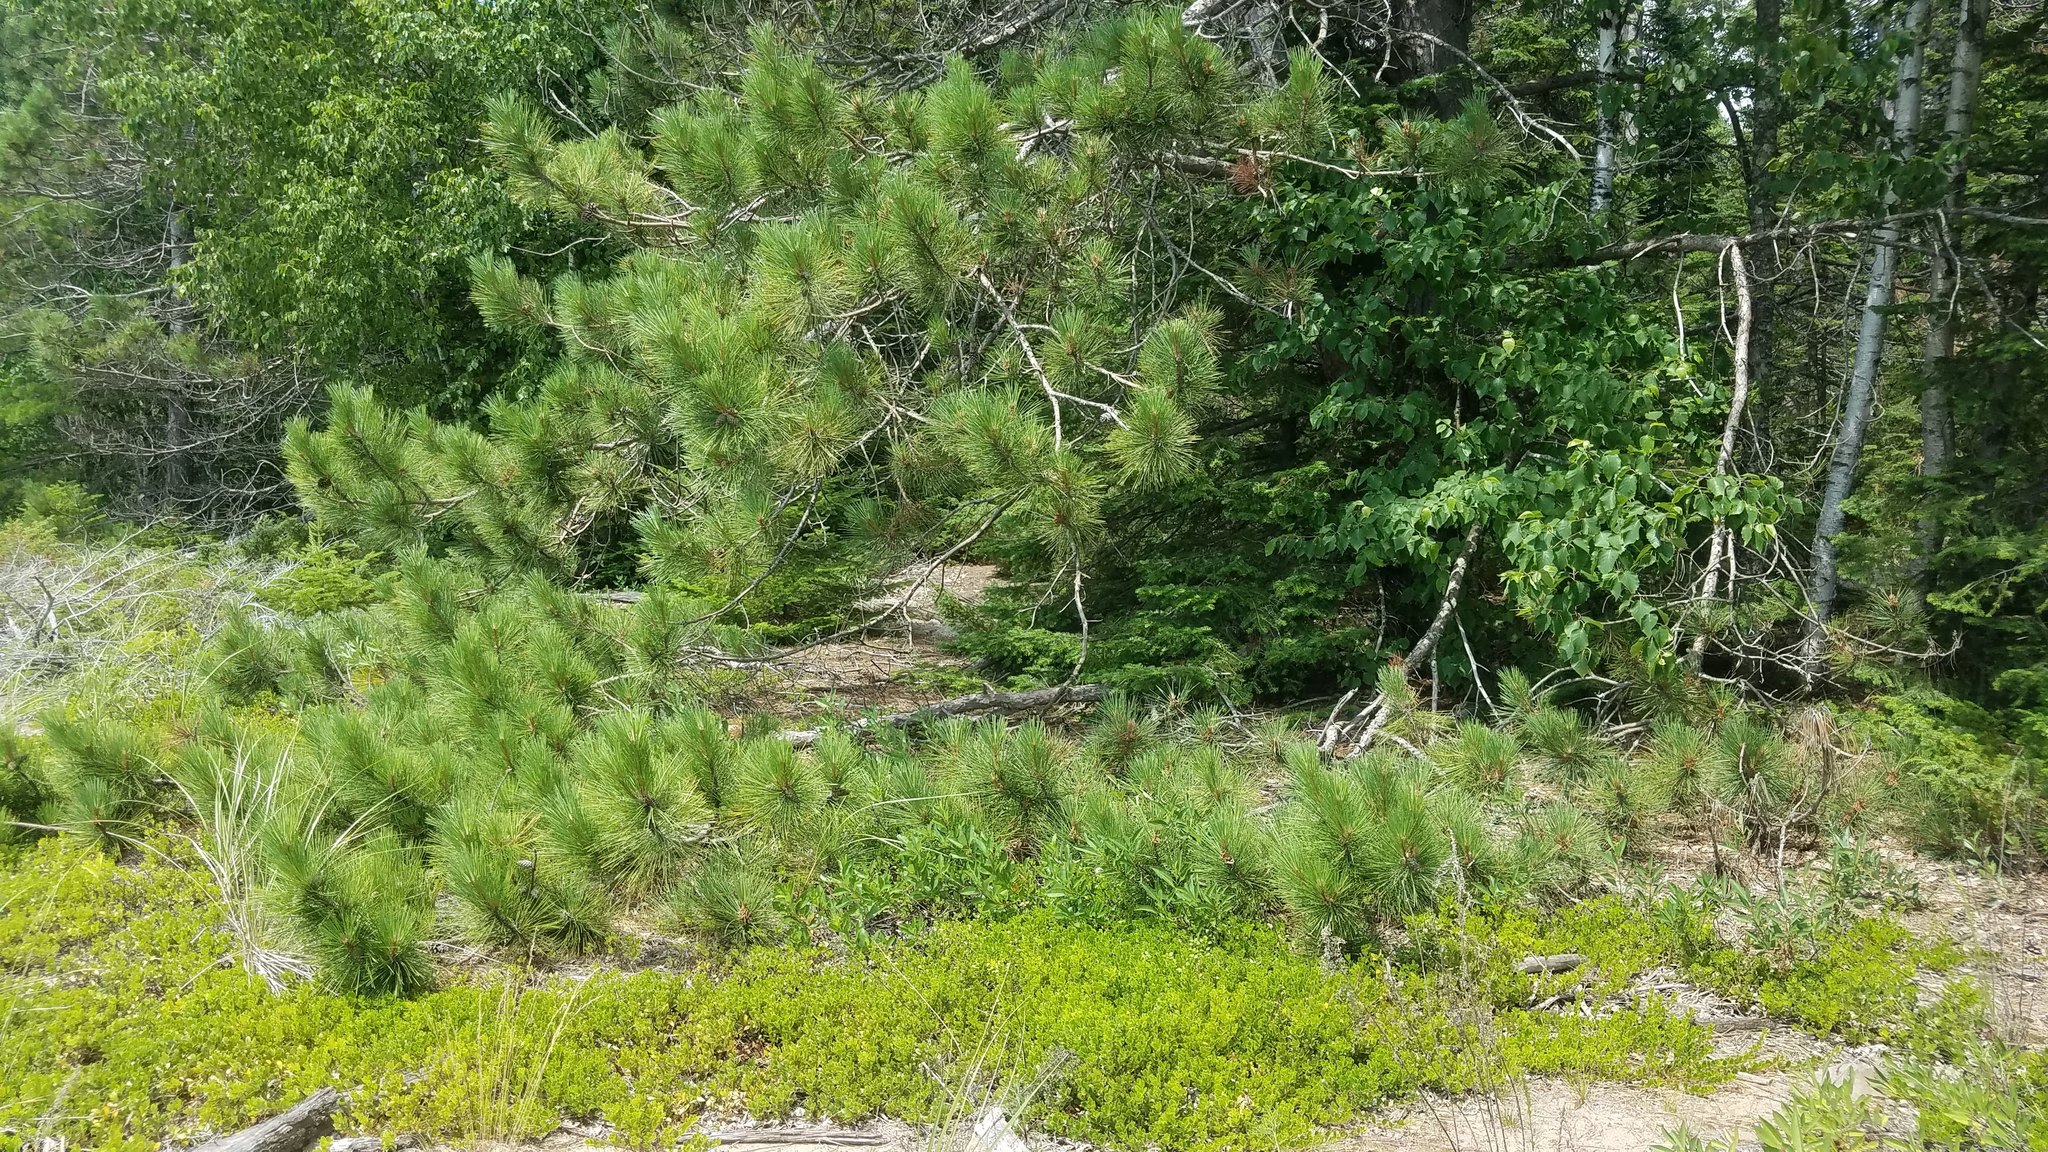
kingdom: Plantae
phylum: Tracheophyta
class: Pinopsida
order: Pinales
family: Pinaceae
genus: Pinus
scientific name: Pinus resinosa
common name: Norway pine
